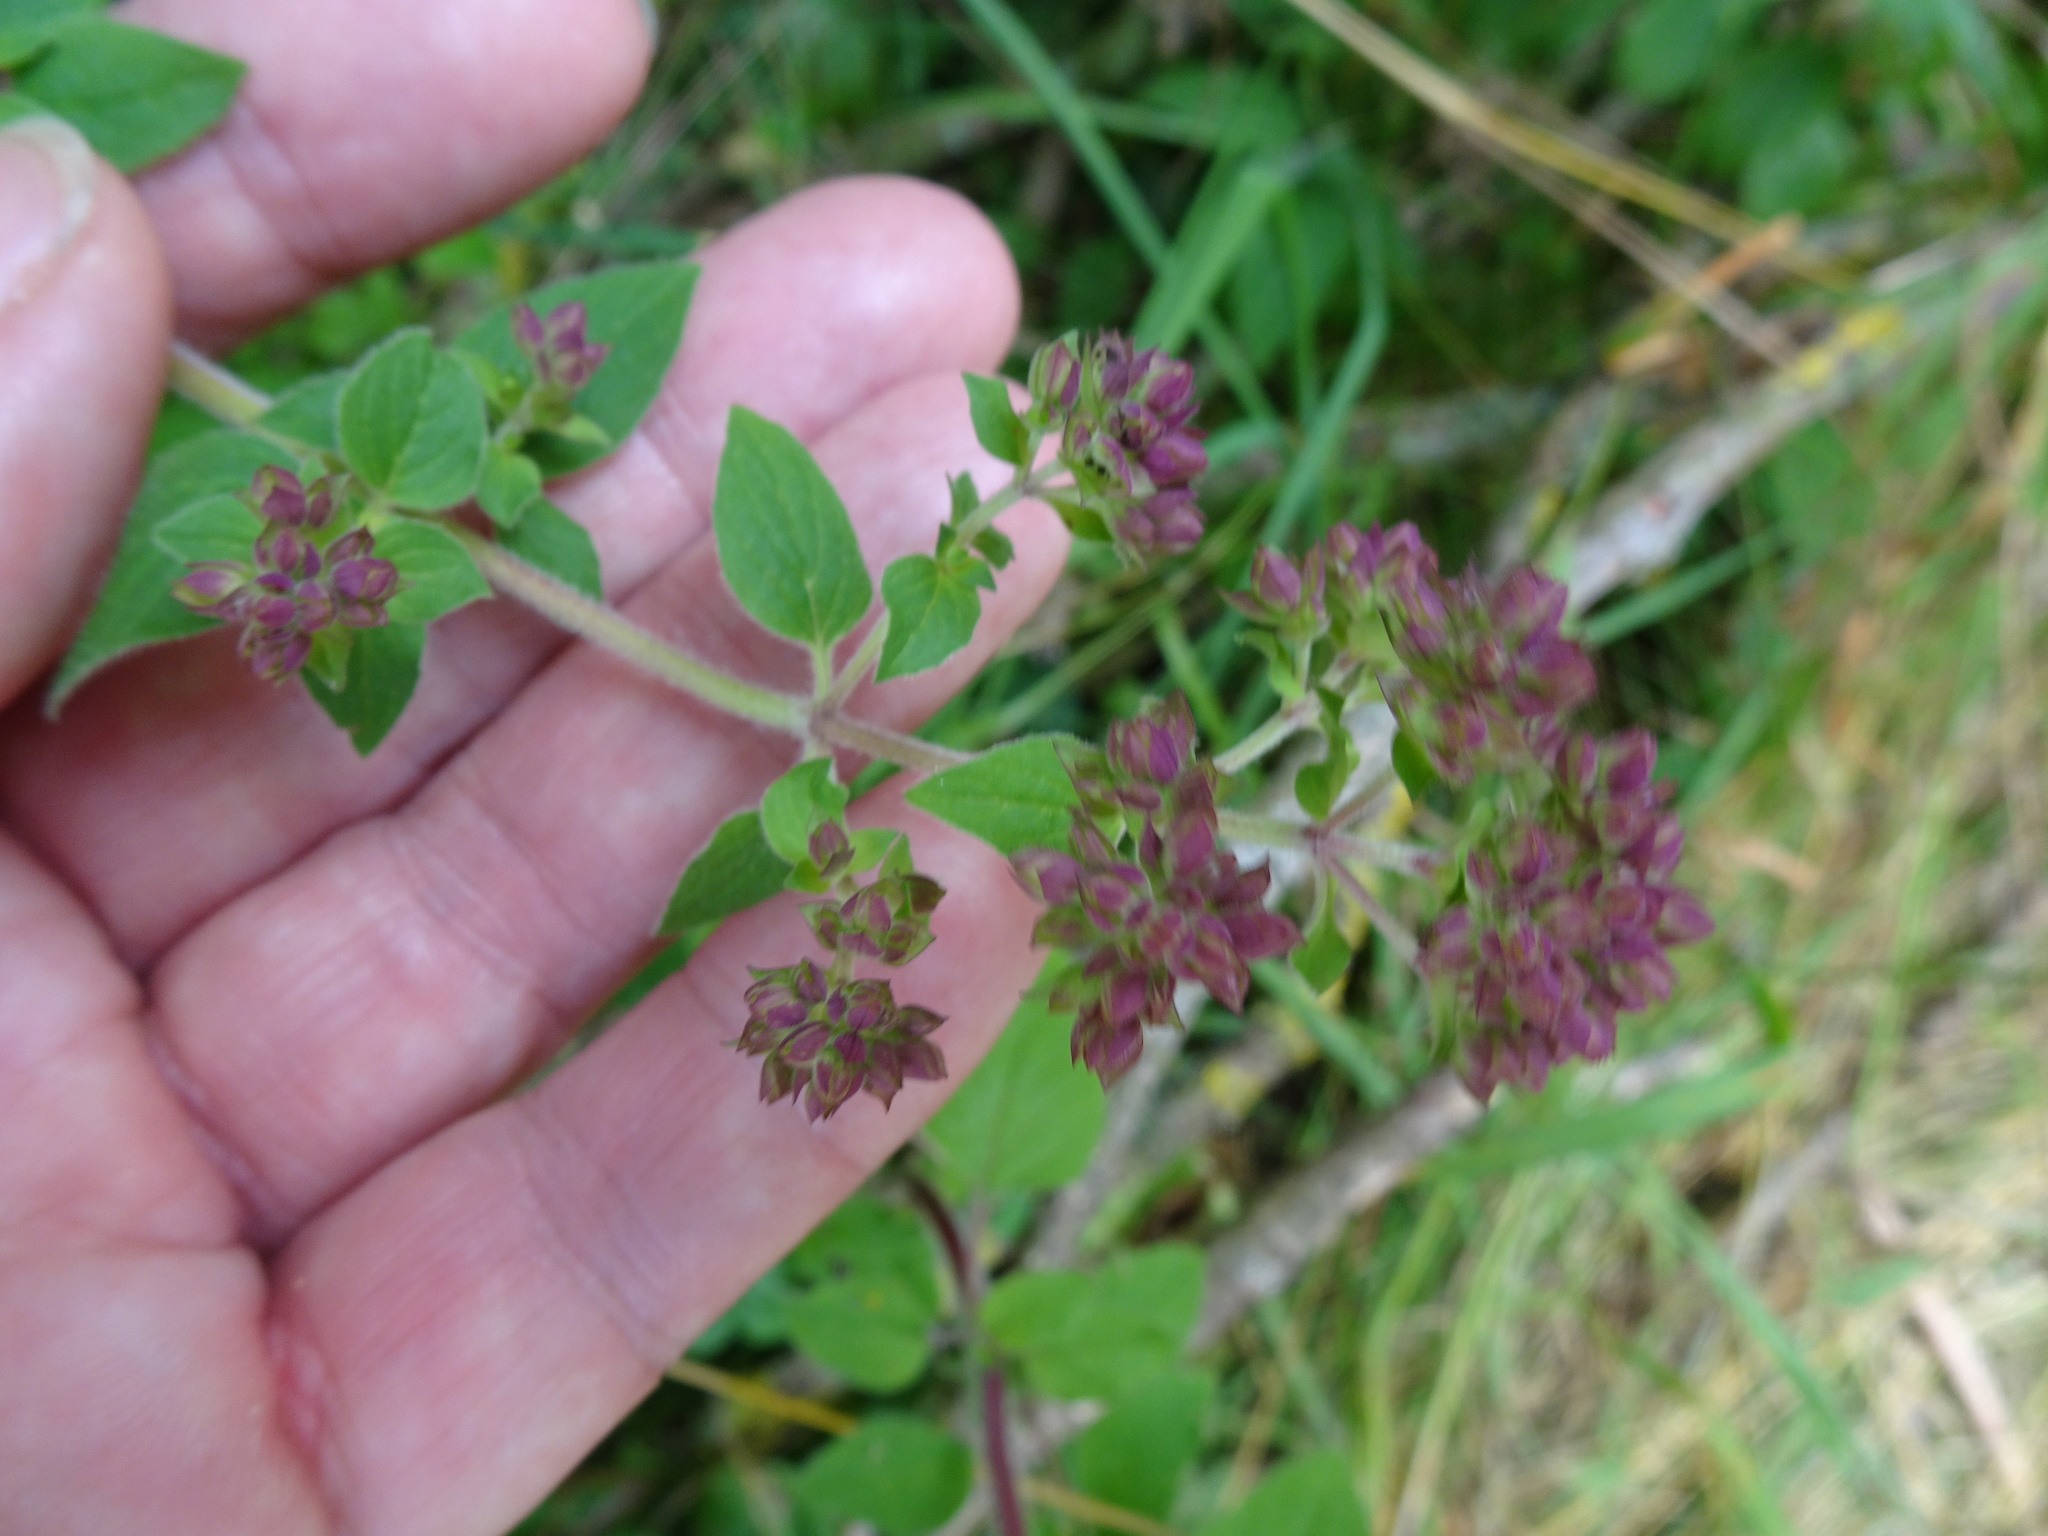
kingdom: Plantae
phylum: Tracheophyta
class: Magnoliopsida
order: Lamiales
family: Lamiaceae
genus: Origanum
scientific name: Origanum vulgare
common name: Wild marjoram
